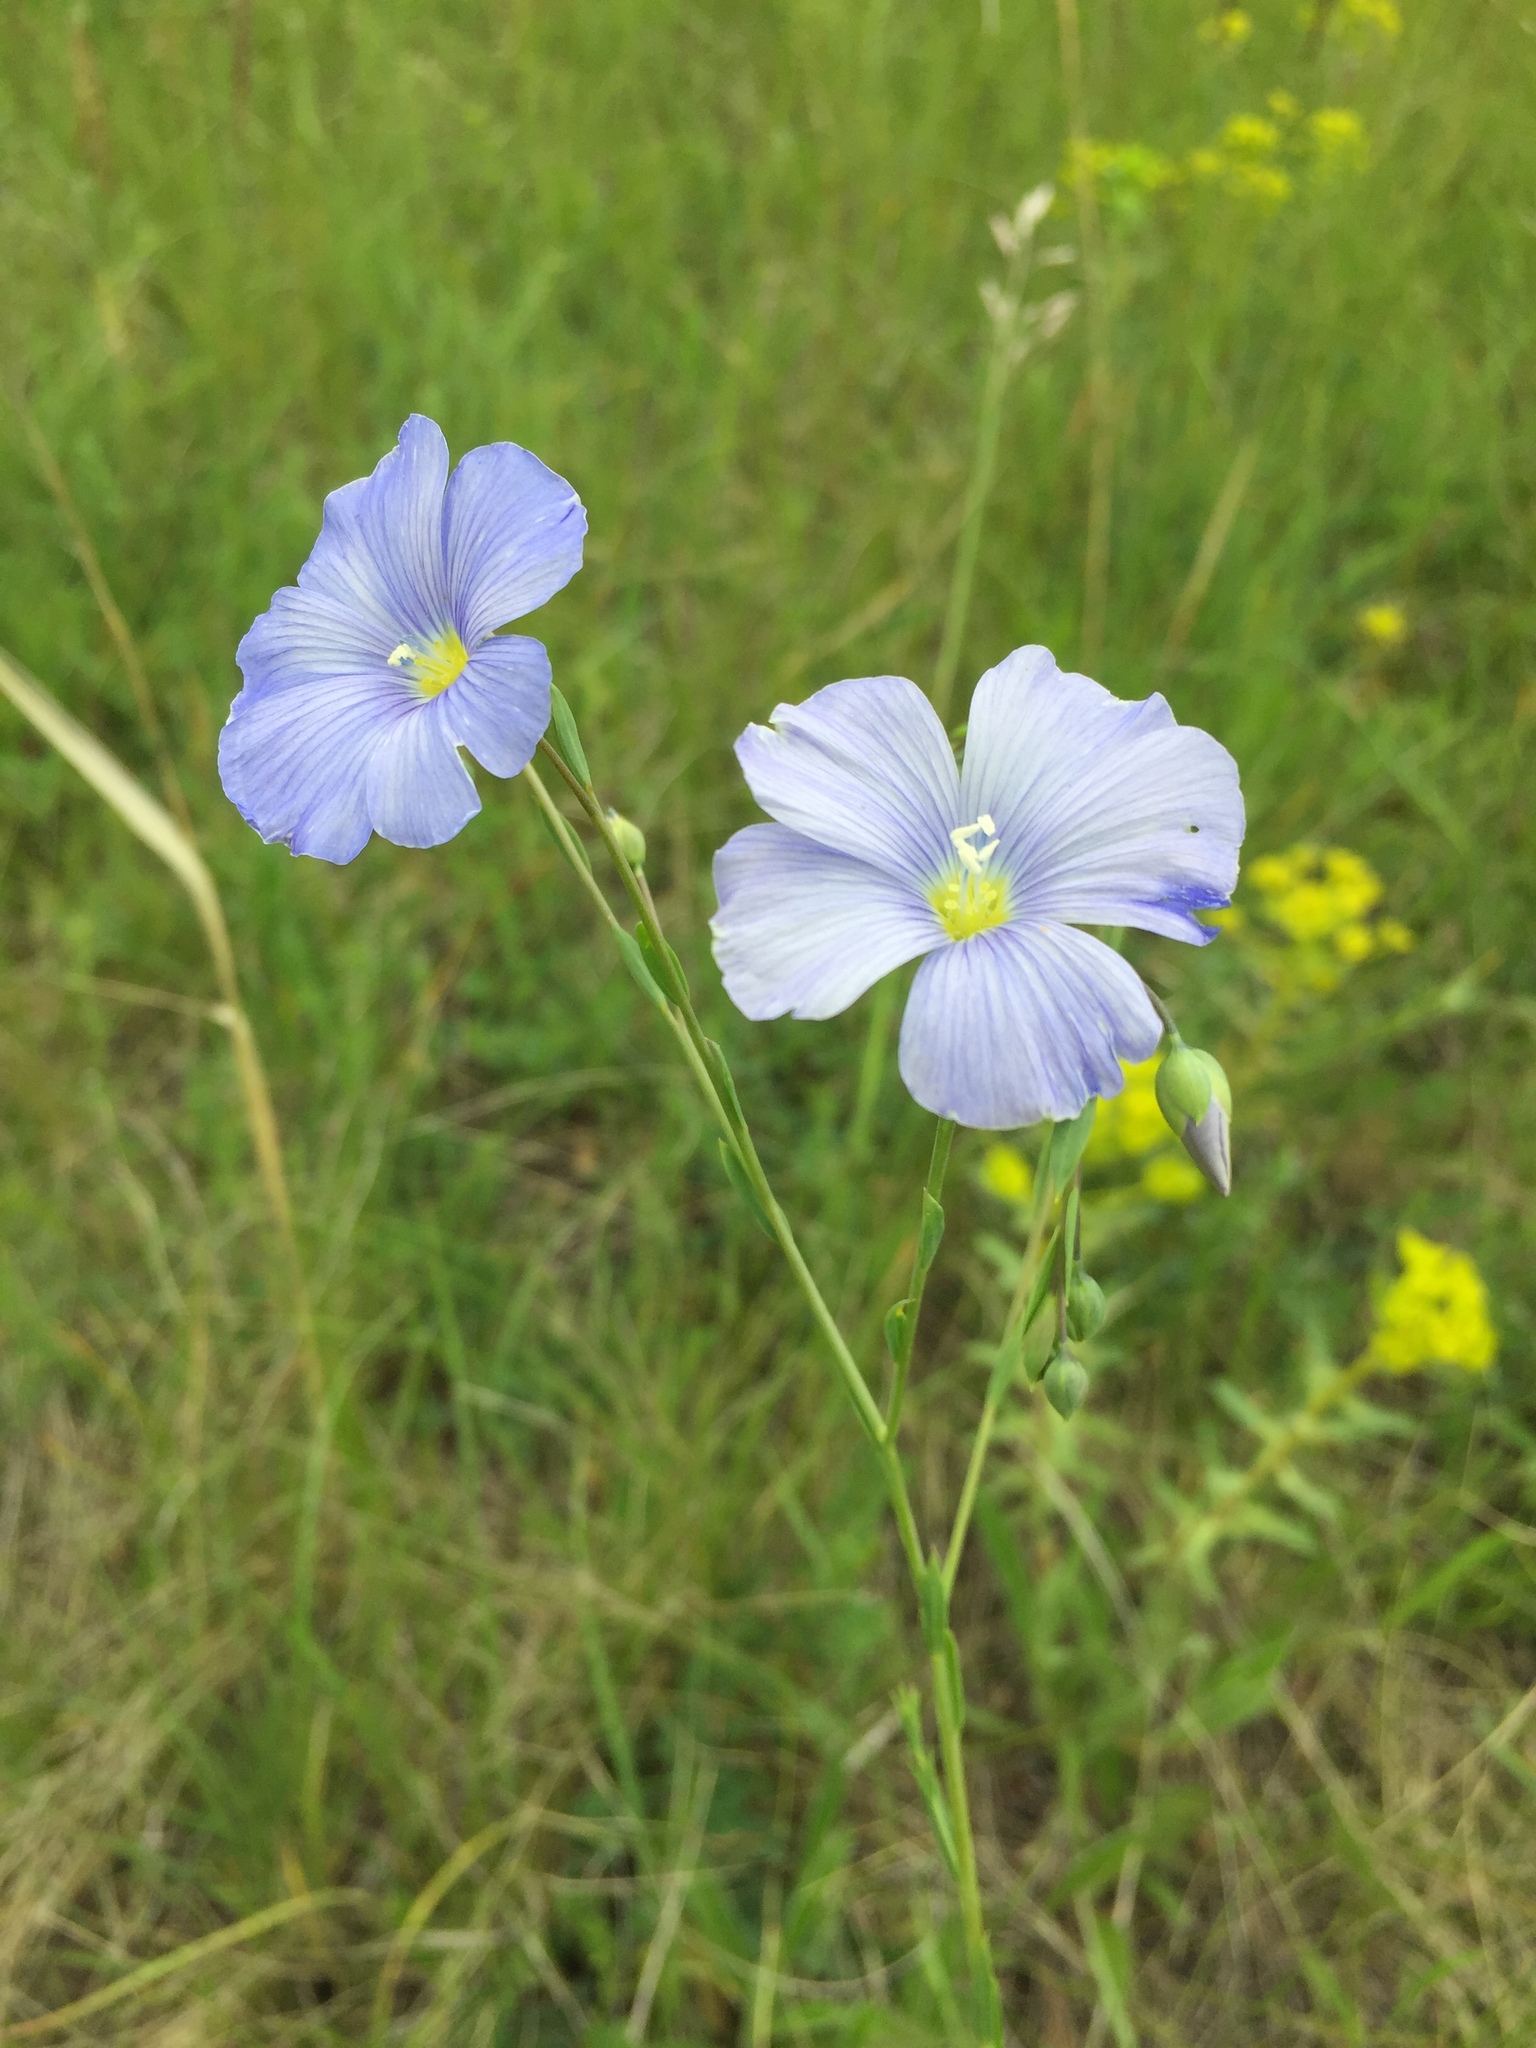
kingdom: Plantae
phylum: Tracheophyta
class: Magnoliopsida
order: Malpighiales
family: Linaceae
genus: Linum
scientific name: Linum usitatissimum
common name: Flax
